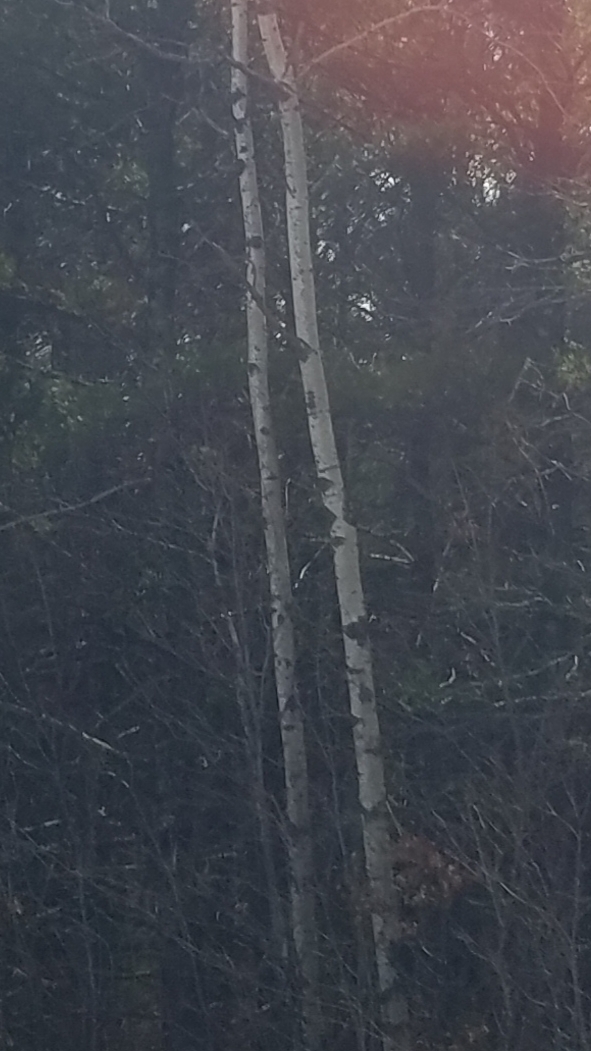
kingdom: Plantae
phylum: Tracheophyta
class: Magnoliopsida
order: Malpighiales
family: Salicaceae
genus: Populus
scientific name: Populus tremuloides
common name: Quaking aspen
